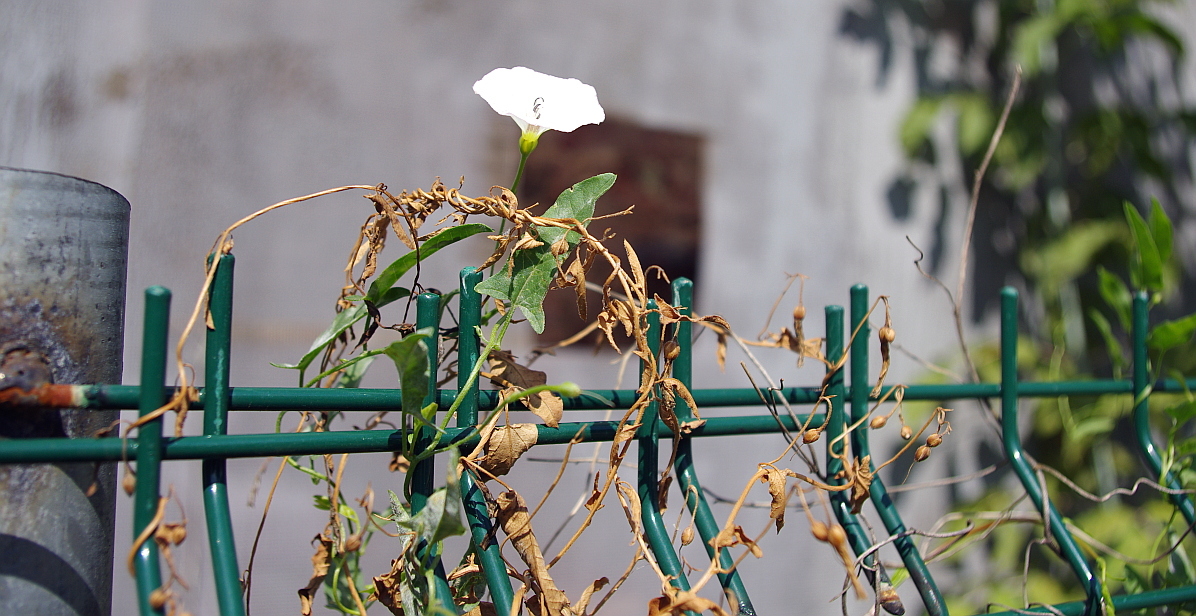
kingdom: Plantae
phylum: Tracheophyta
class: Magnoliopsida
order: Solanales
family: Convolvulaceae
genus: Convolvulus
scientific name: Convolvulus arvensis
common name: Field bindweed
